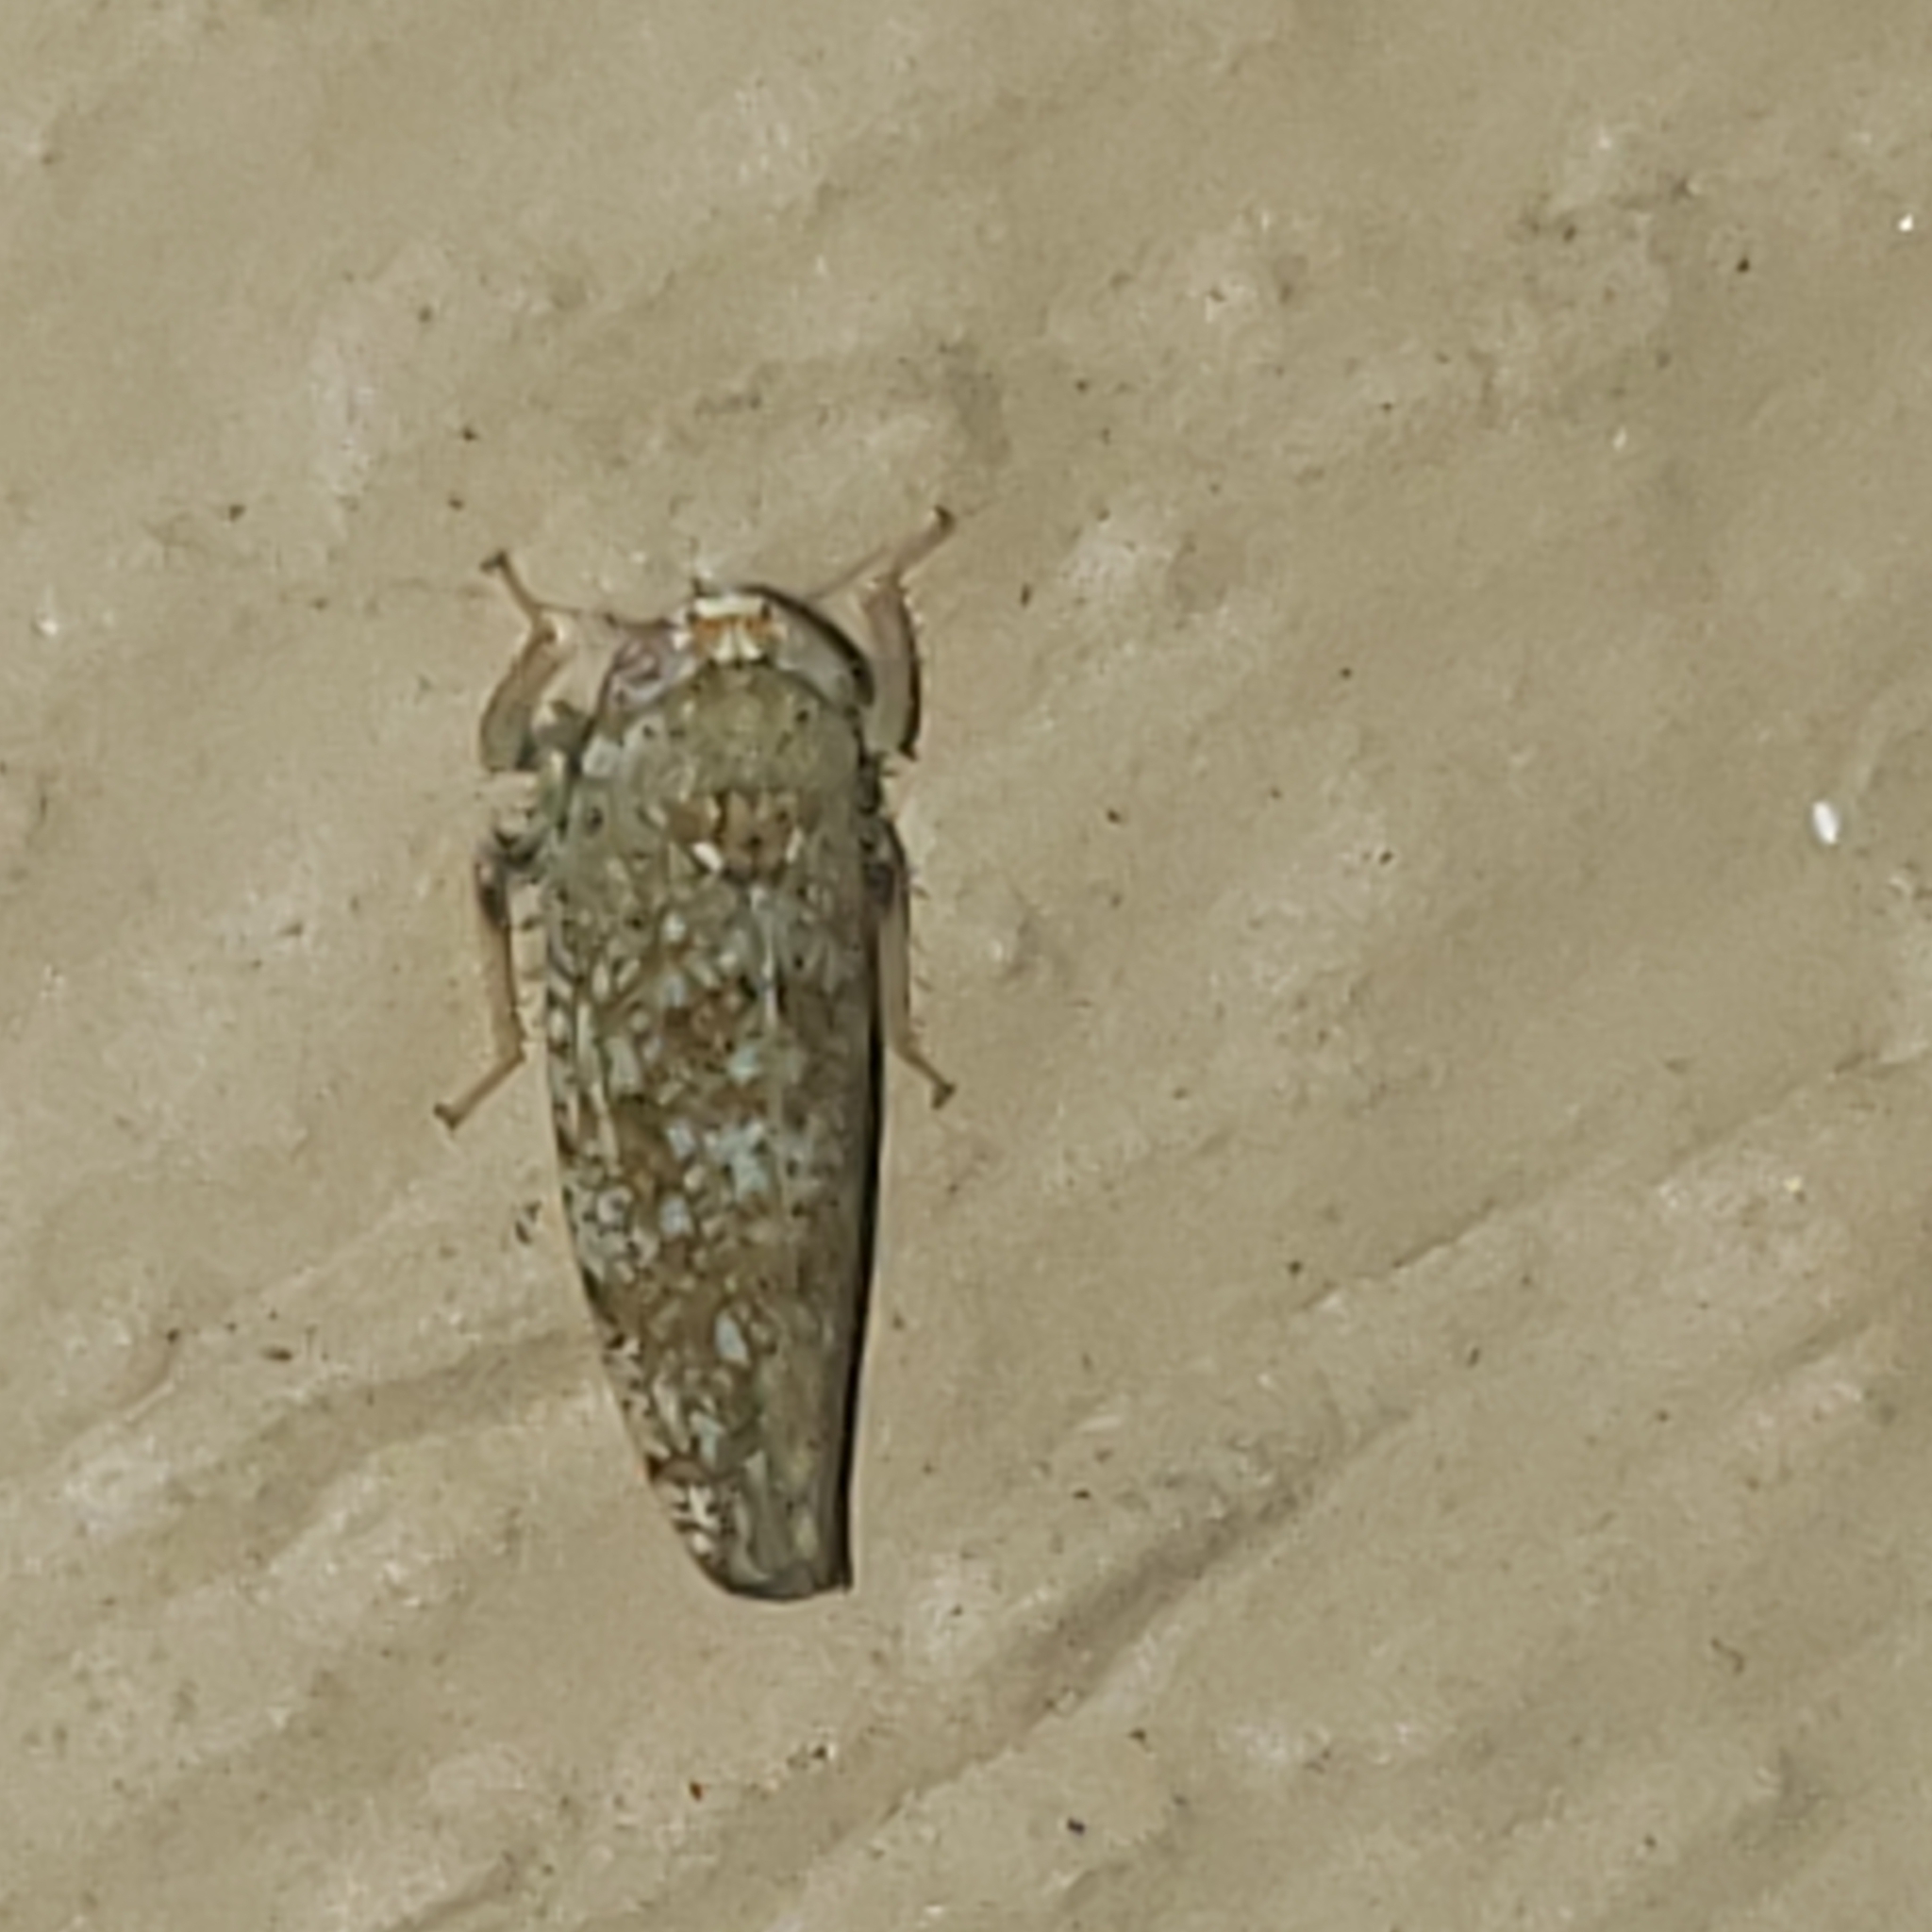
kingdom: Animalia
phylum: Arthropoda
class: Insecta
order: Hemiptera
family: Cicadellidae
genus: Orientus
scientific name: Orientus ishidae
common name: Japanese leafhopper
